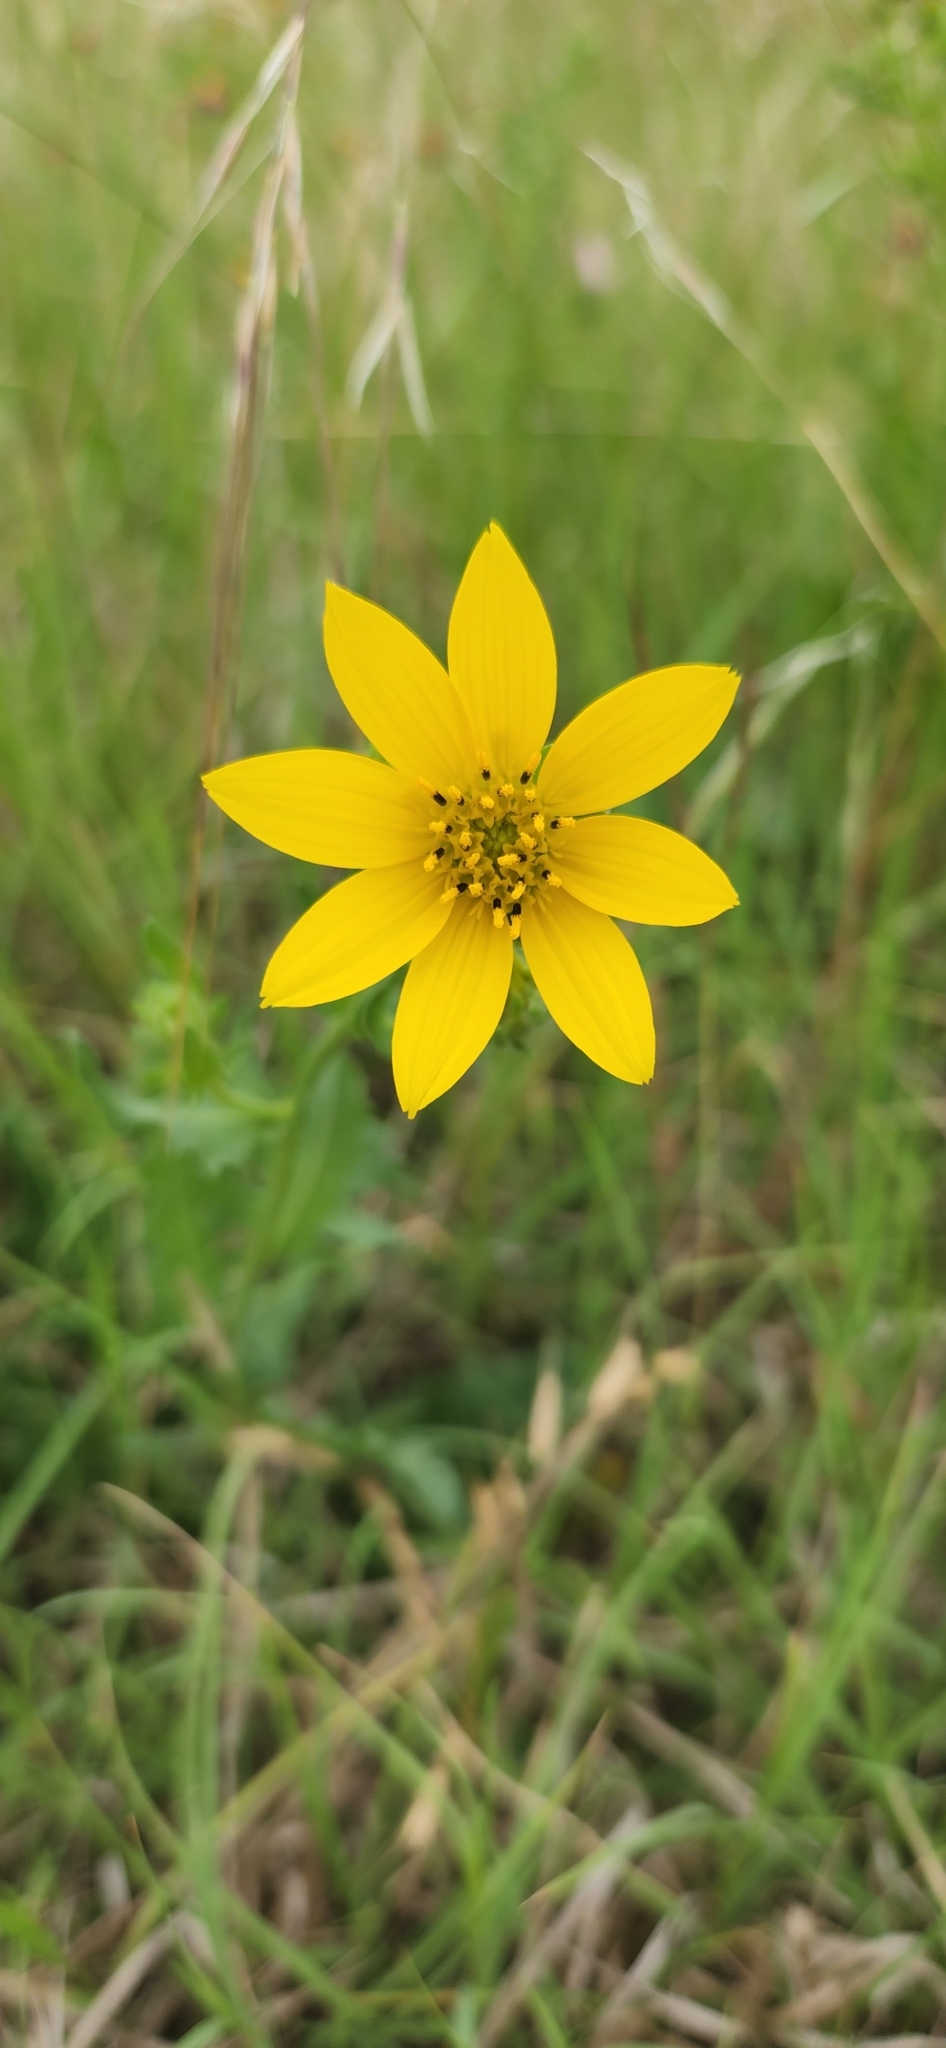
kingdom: Plantae
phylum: Tracheophyta
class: Magnoliopsida
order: Asterales
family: Asteraceae
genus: Engelmannia
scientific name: Engelmannia peristenia
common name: Engelmann's daisy
